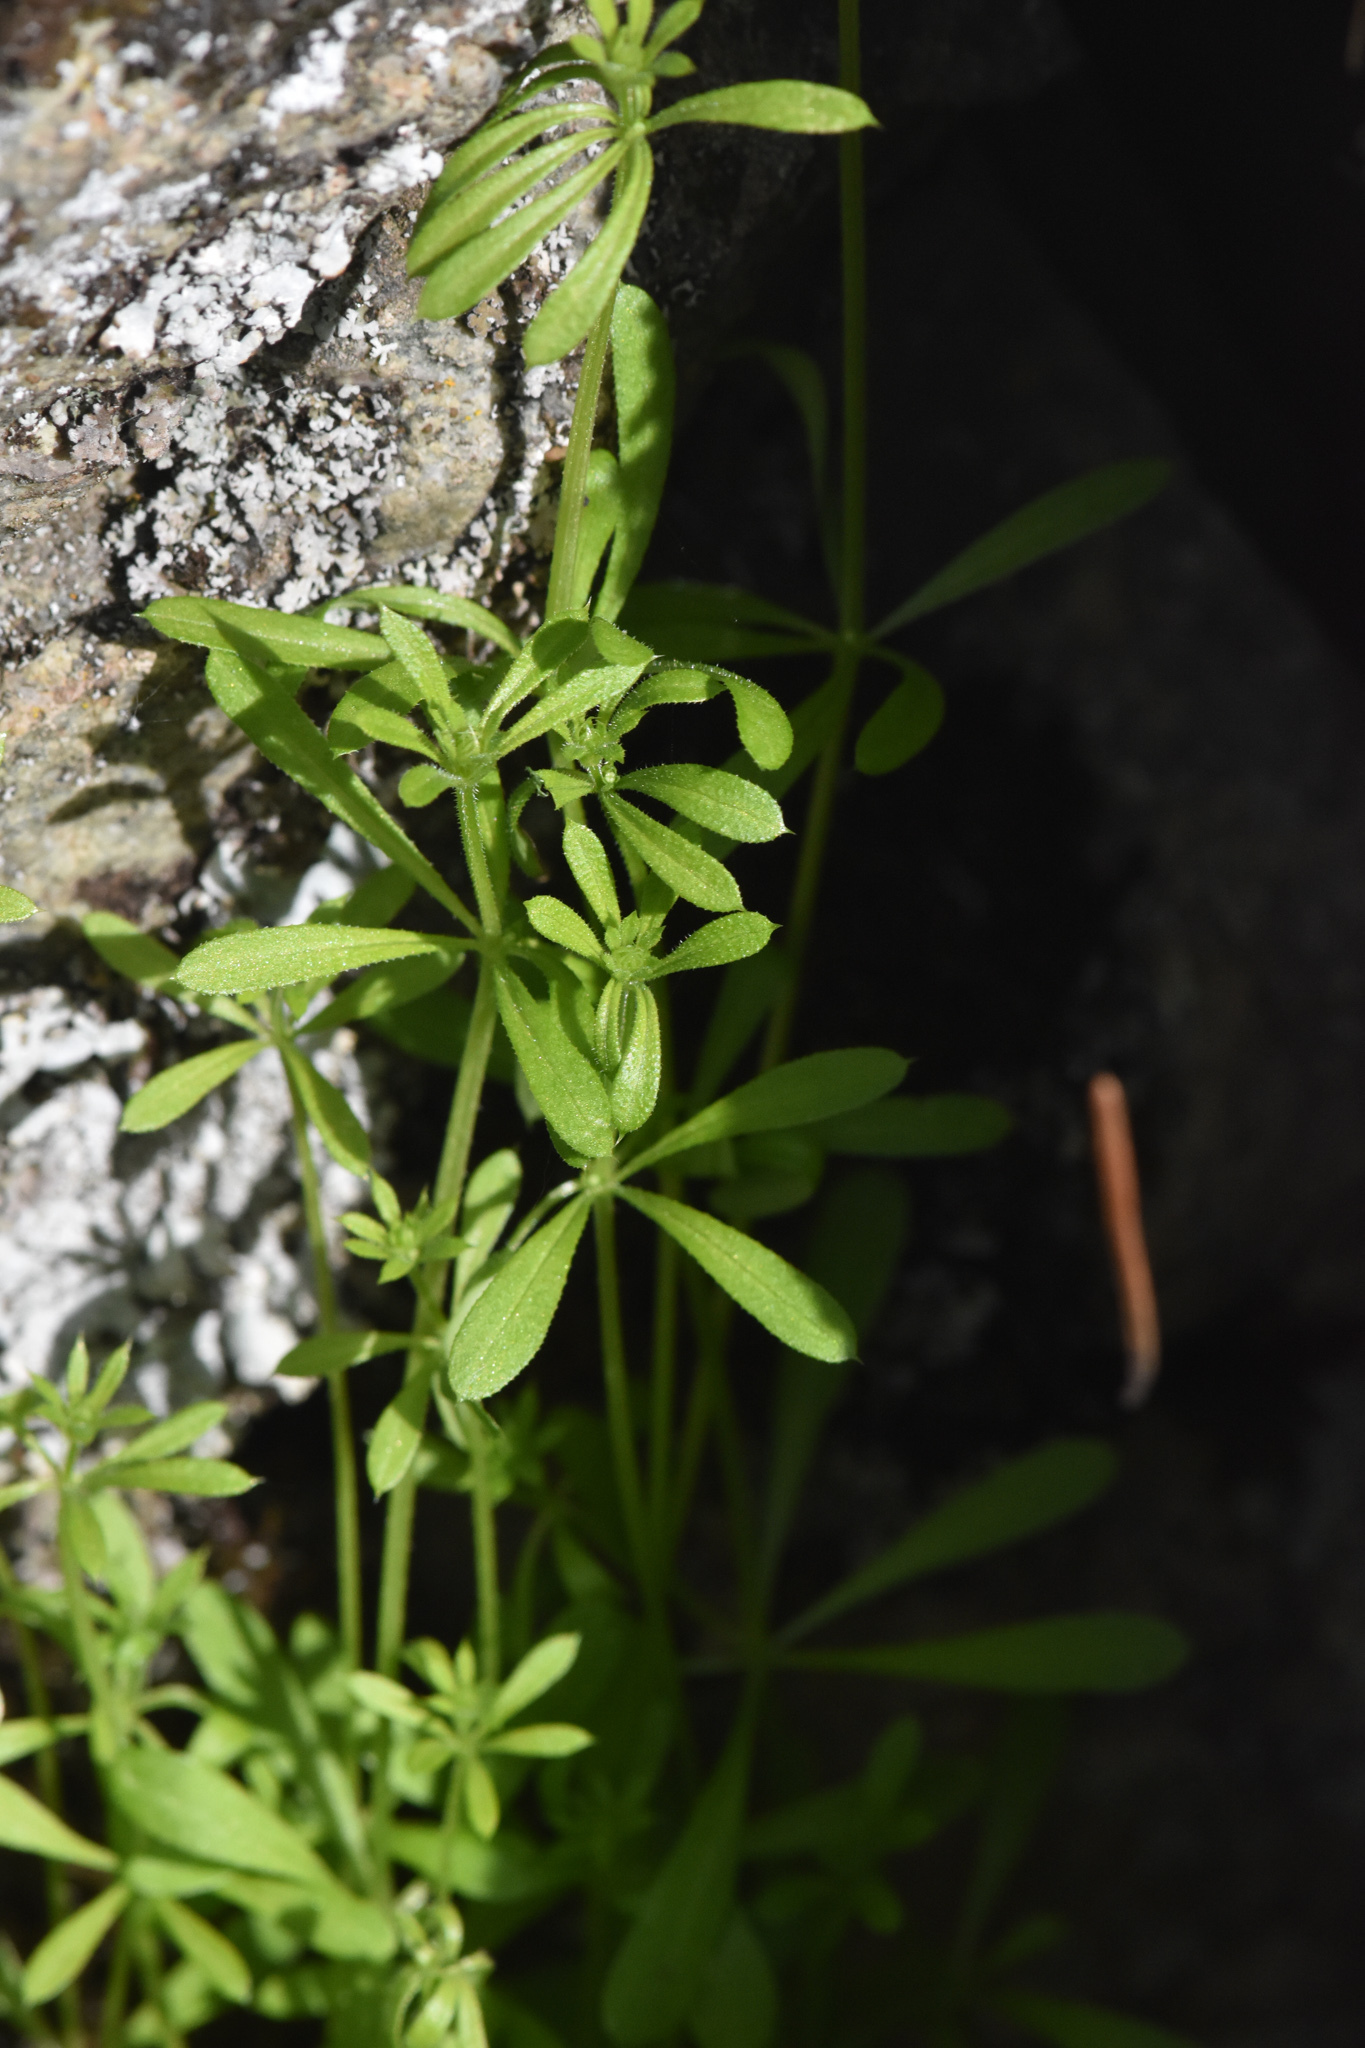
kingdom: Plantae
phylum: Tracheophyta
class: Magnoliopsida
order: Gentianales
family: Rubiaceae
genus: Galium
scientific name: Galium aparine
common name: Cleavers
